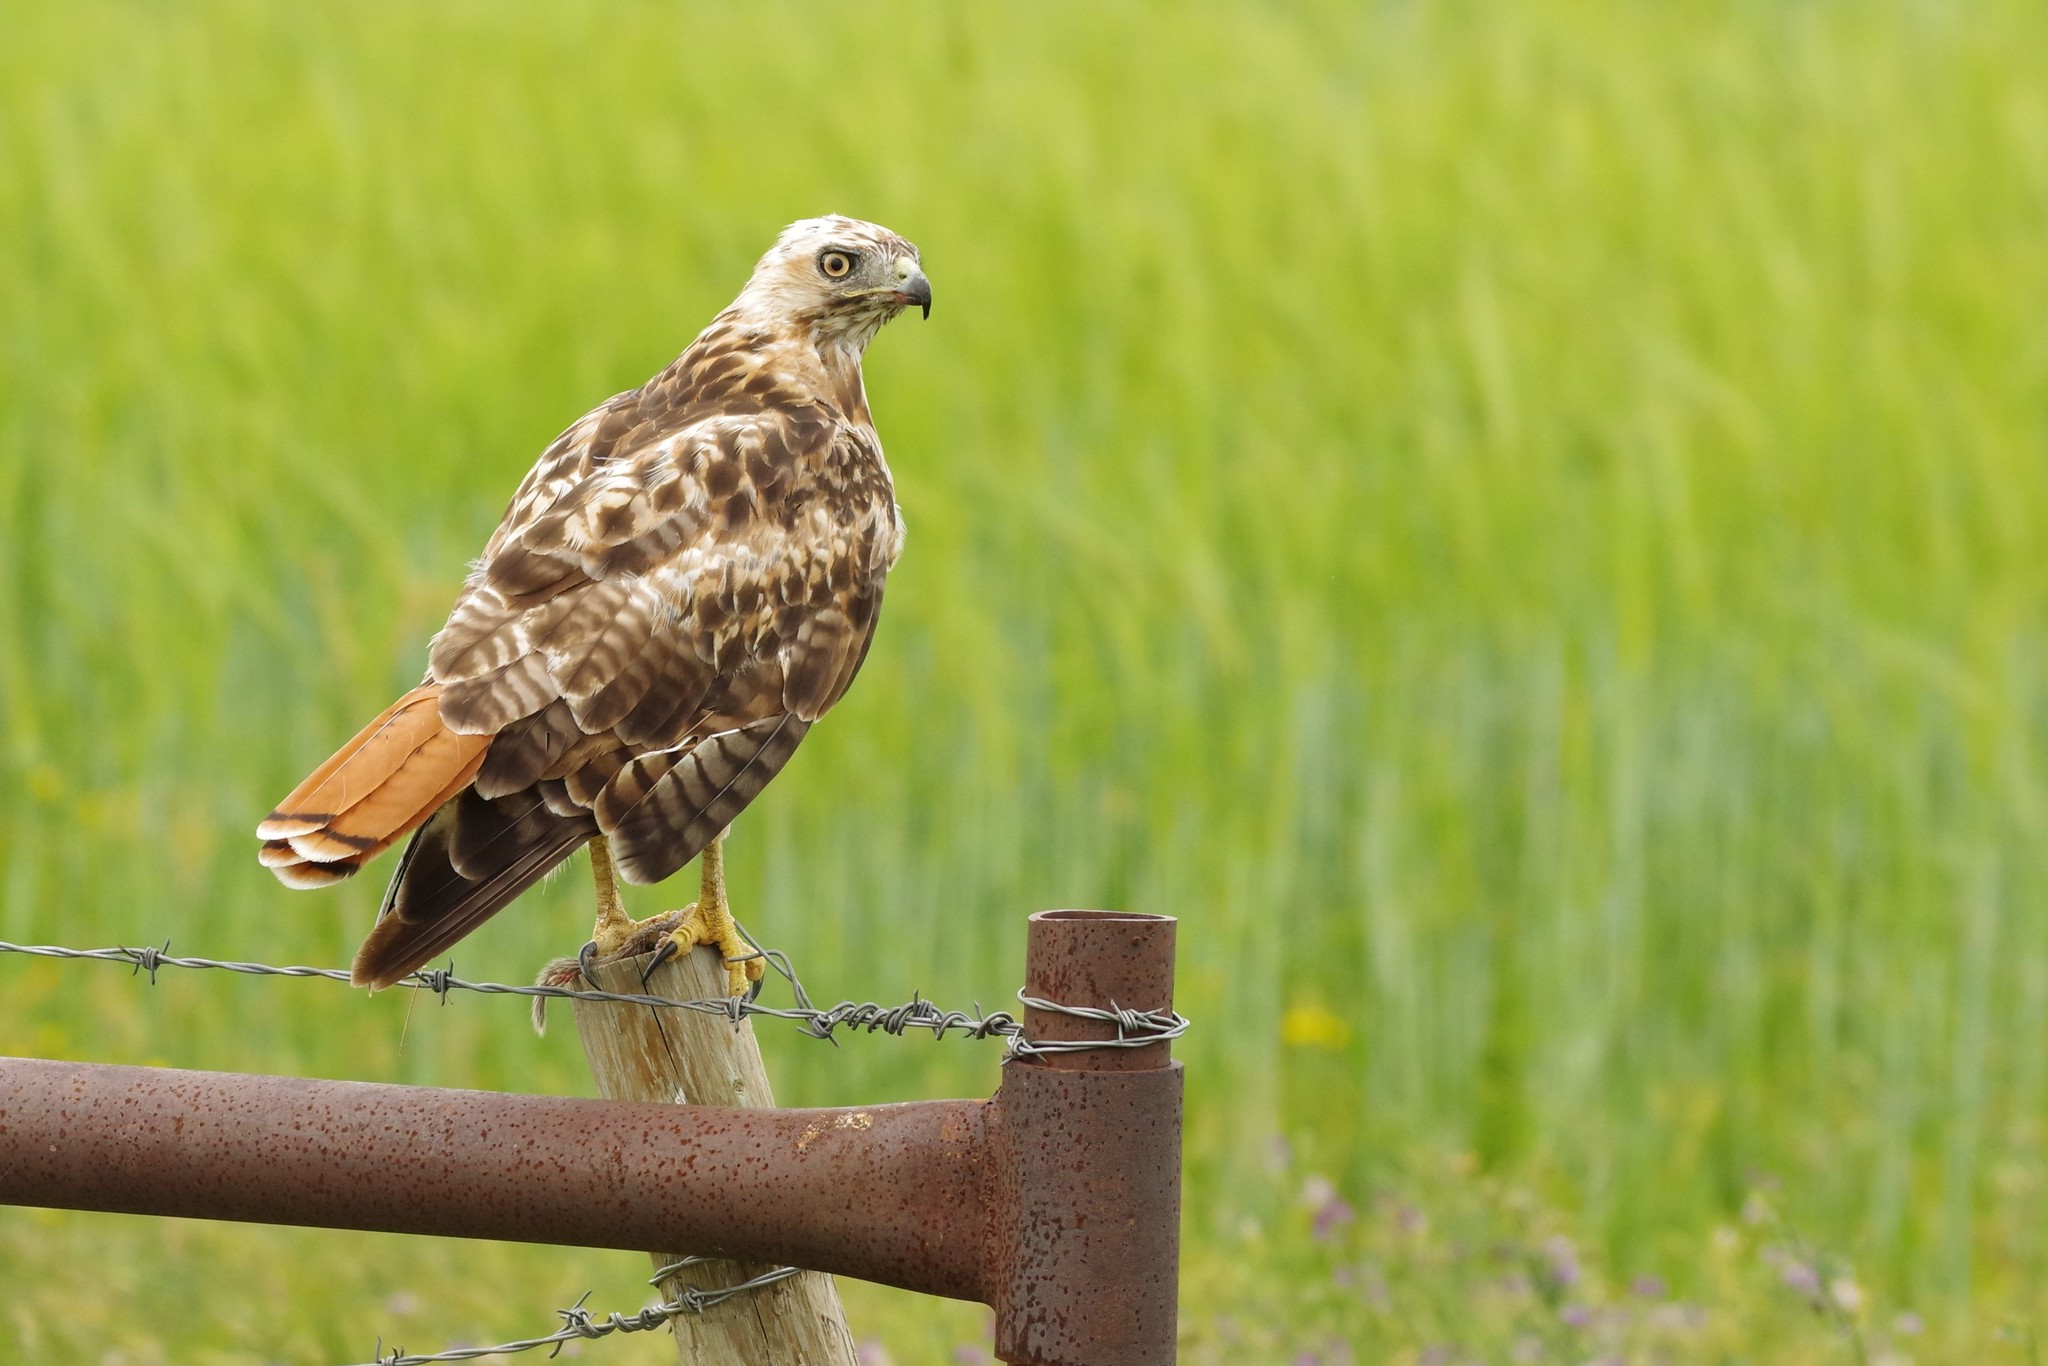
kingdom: Animalia
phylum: Chordata
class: Aves
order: Accipitriformes
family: Accipitridae
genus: Buteo
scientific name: Buteo jamaicensis
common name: Red-tailed hawk
